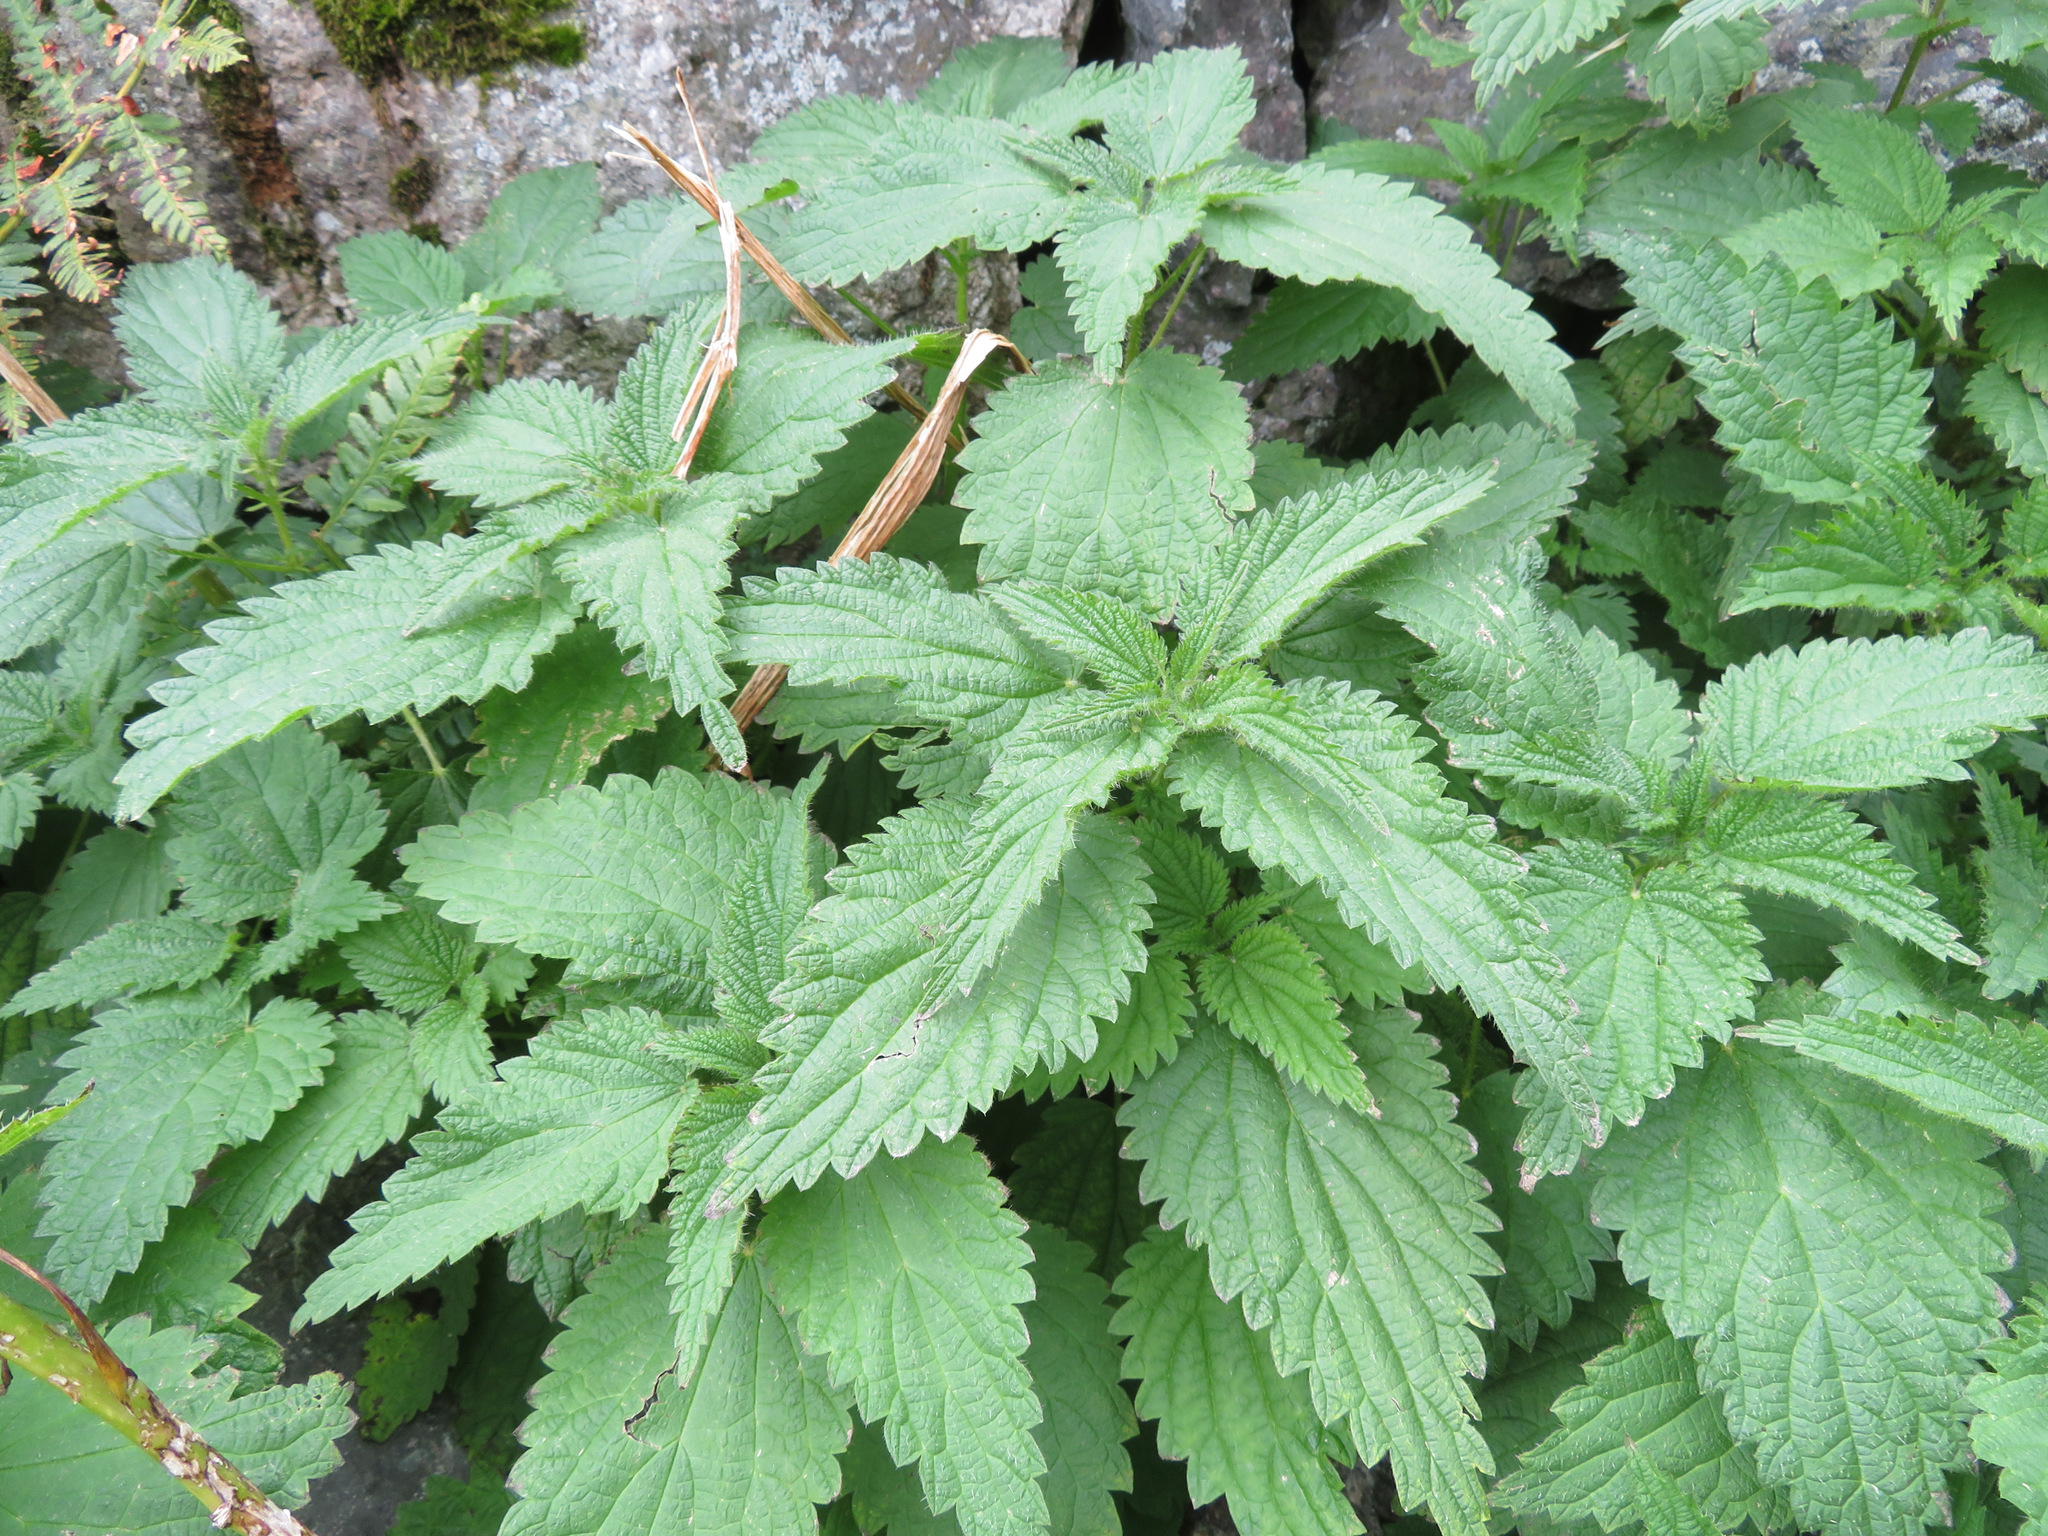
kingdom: Plantae
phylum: Tracheophyta
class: Magnoliopsida
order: Rosales
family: Urticaceae
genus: Urtica
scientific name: Urtica dioica
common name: Common nettle
